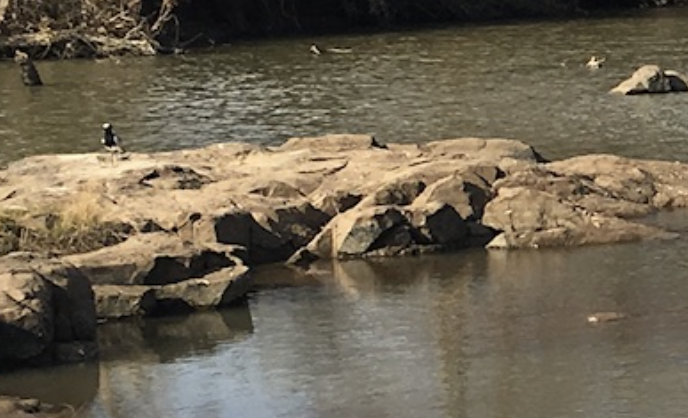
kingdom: Animalia
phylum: Chordata
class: Aves
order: Charadriiformes
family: Charadriidae
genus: Vanellus
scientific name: Vanellus armatus
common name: Blacksmith lapwing
